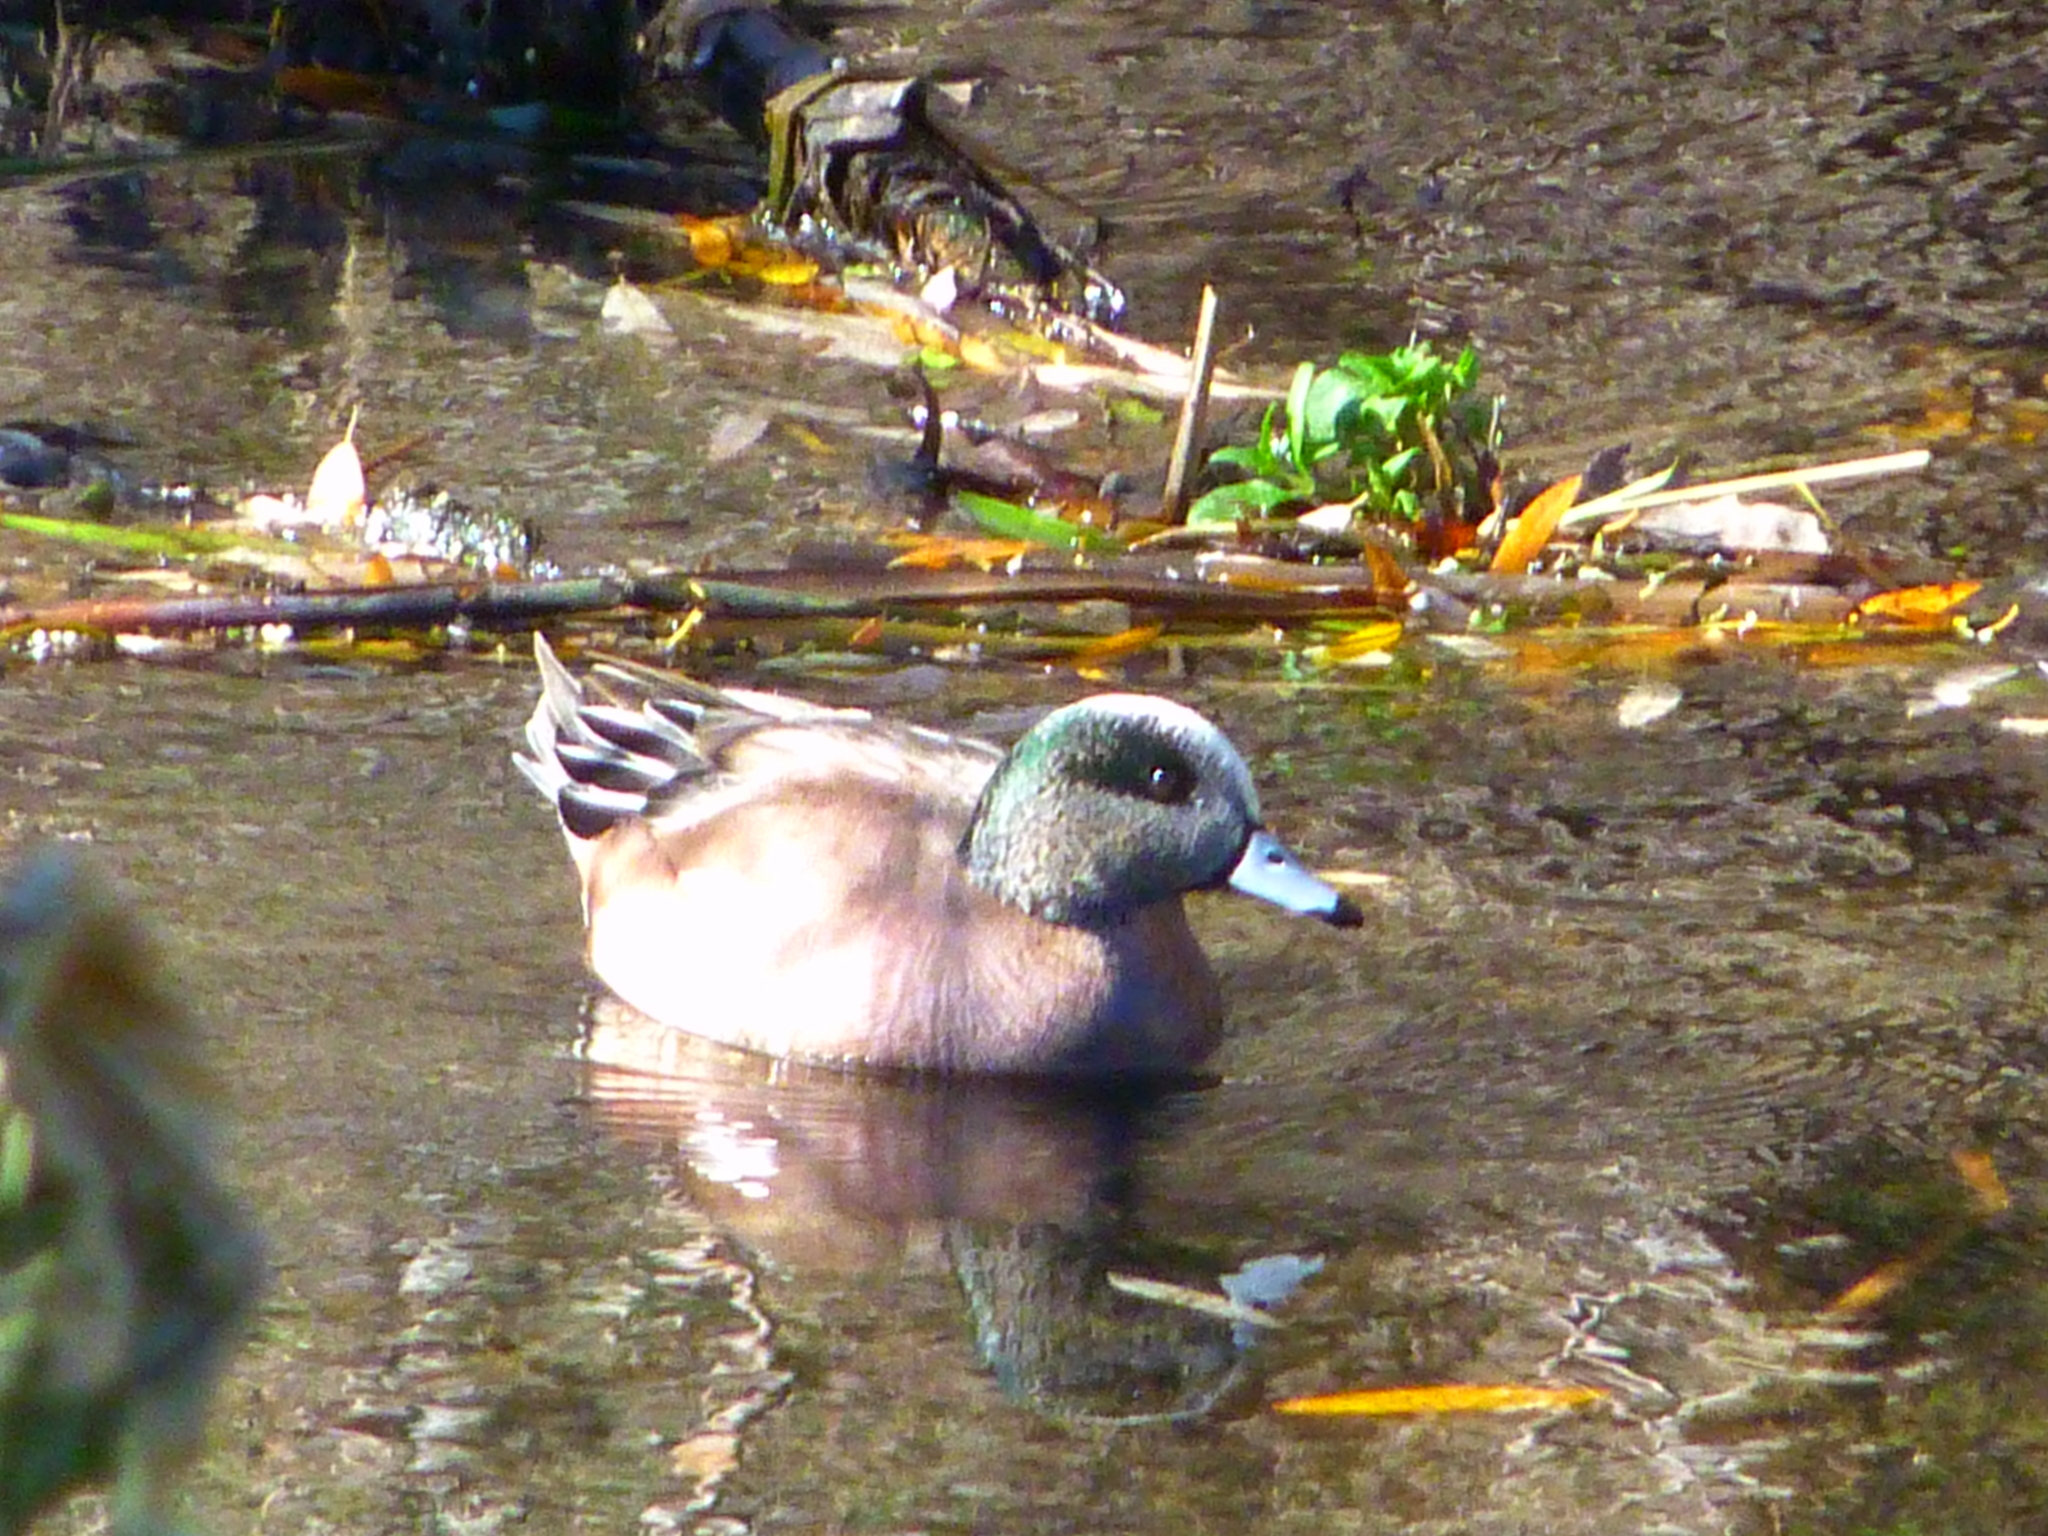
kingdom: Animalia
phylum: Chordata
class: Aves
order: Anseriformes
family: Anatidae
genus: Mareca
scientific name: Mareca americana
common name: American wigeon
